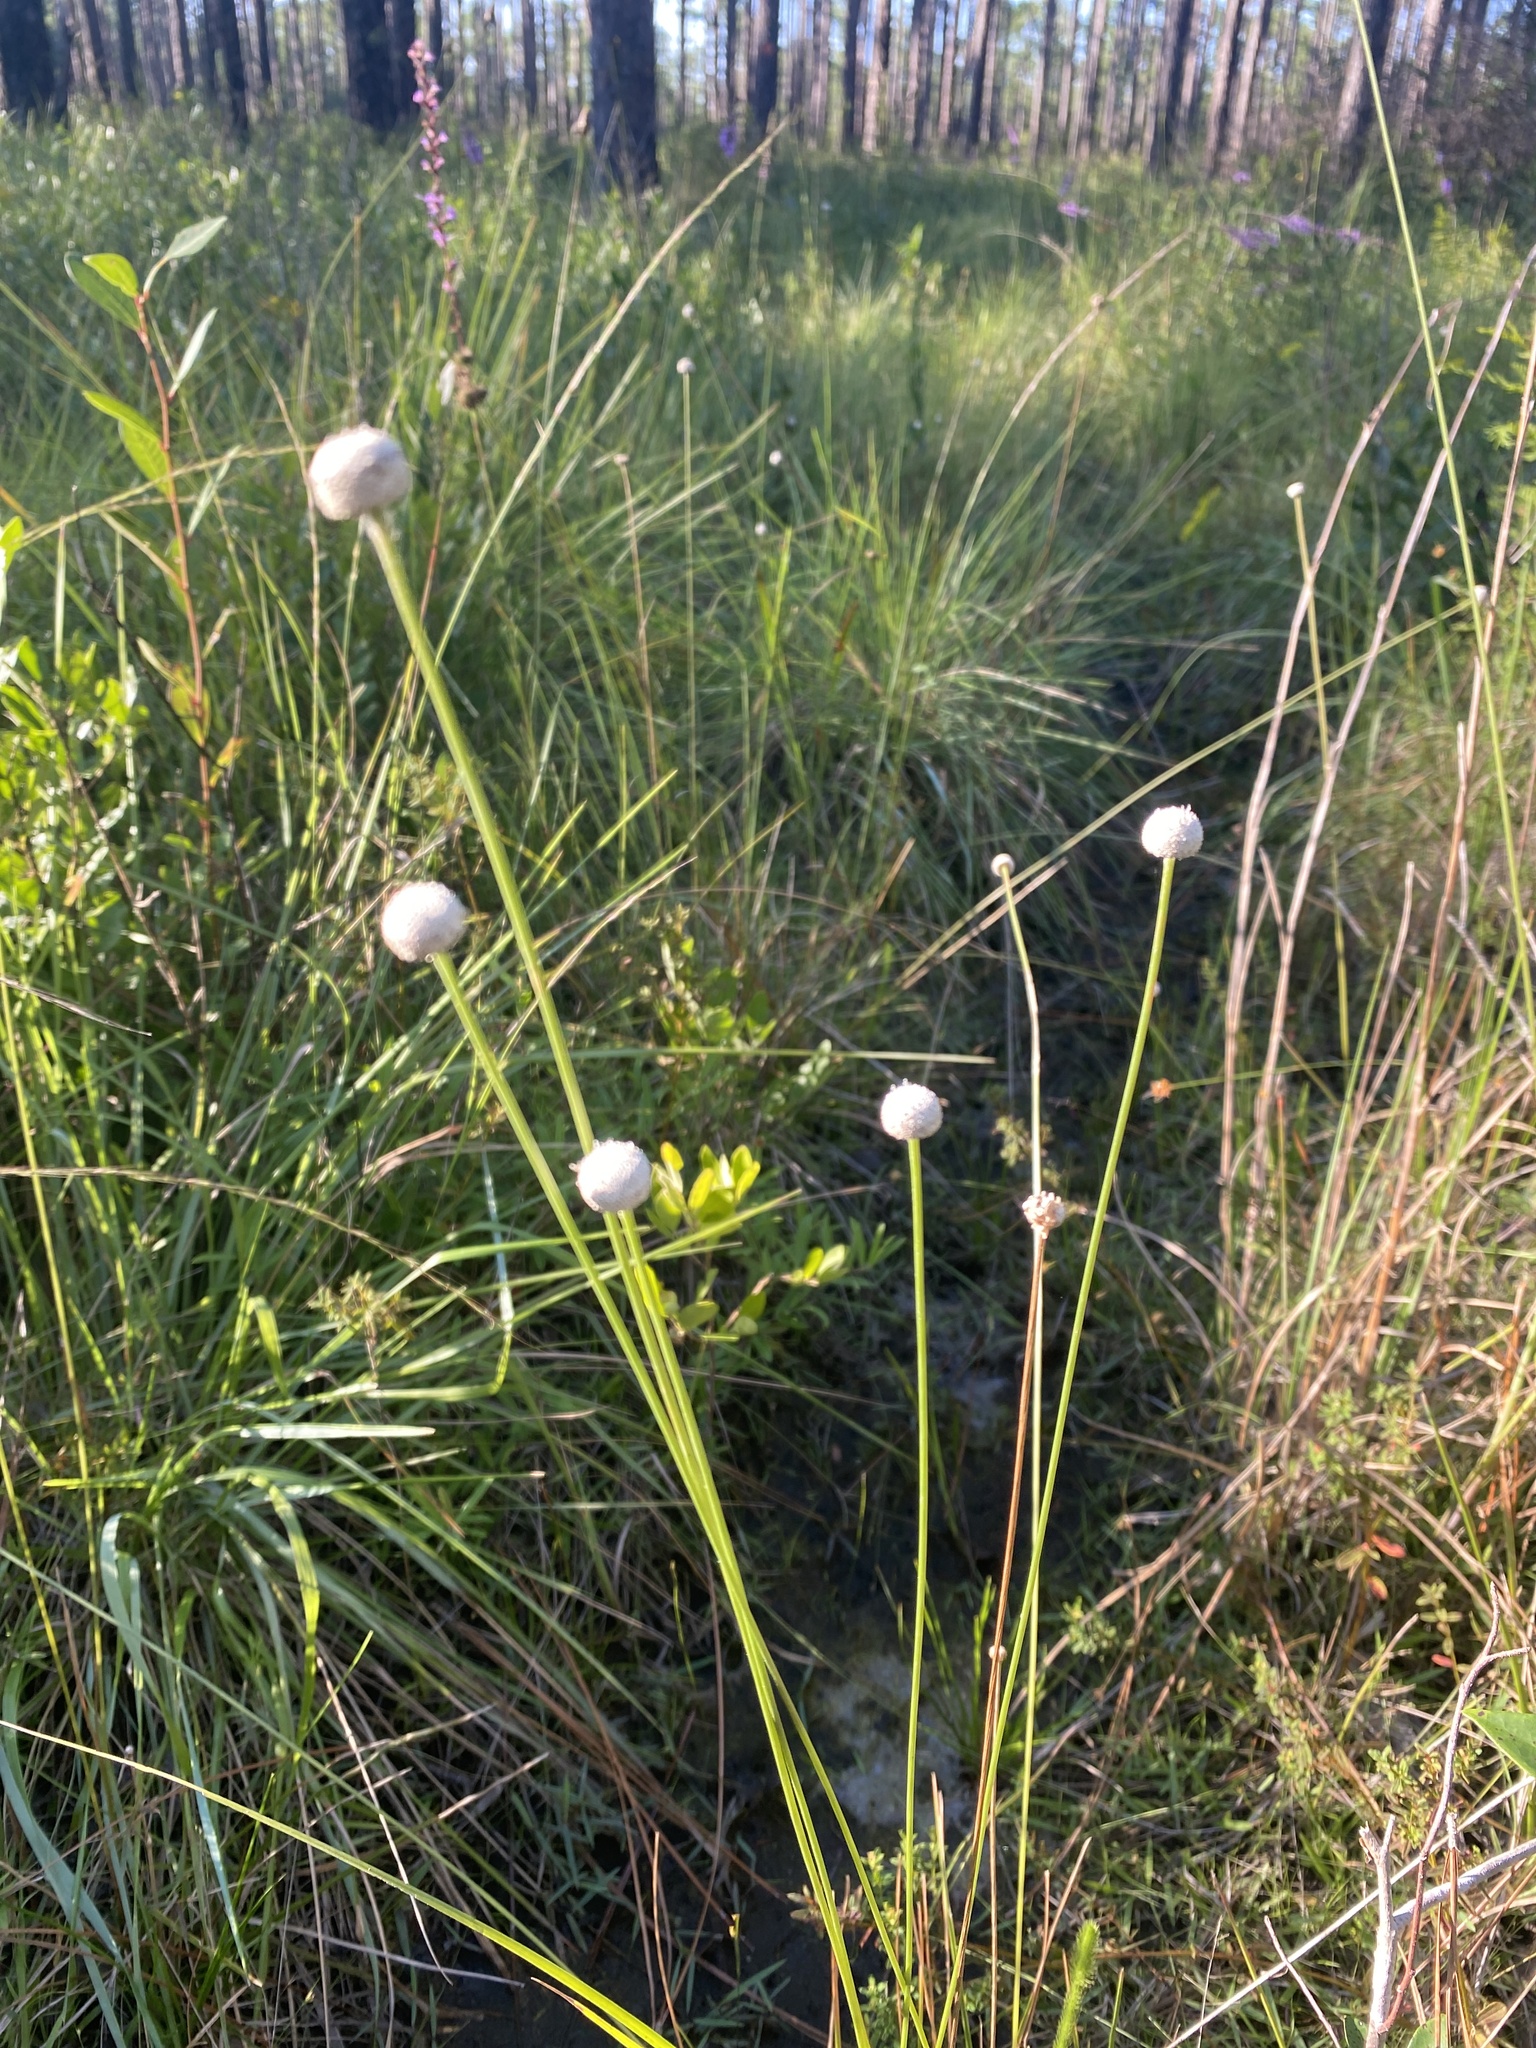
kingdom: Plantae
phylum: Tracheophyta
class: Liliopsida
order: Poales
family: Eriocaulaceae
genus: Eriocaulon
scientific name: Eriocaulon decangulare
